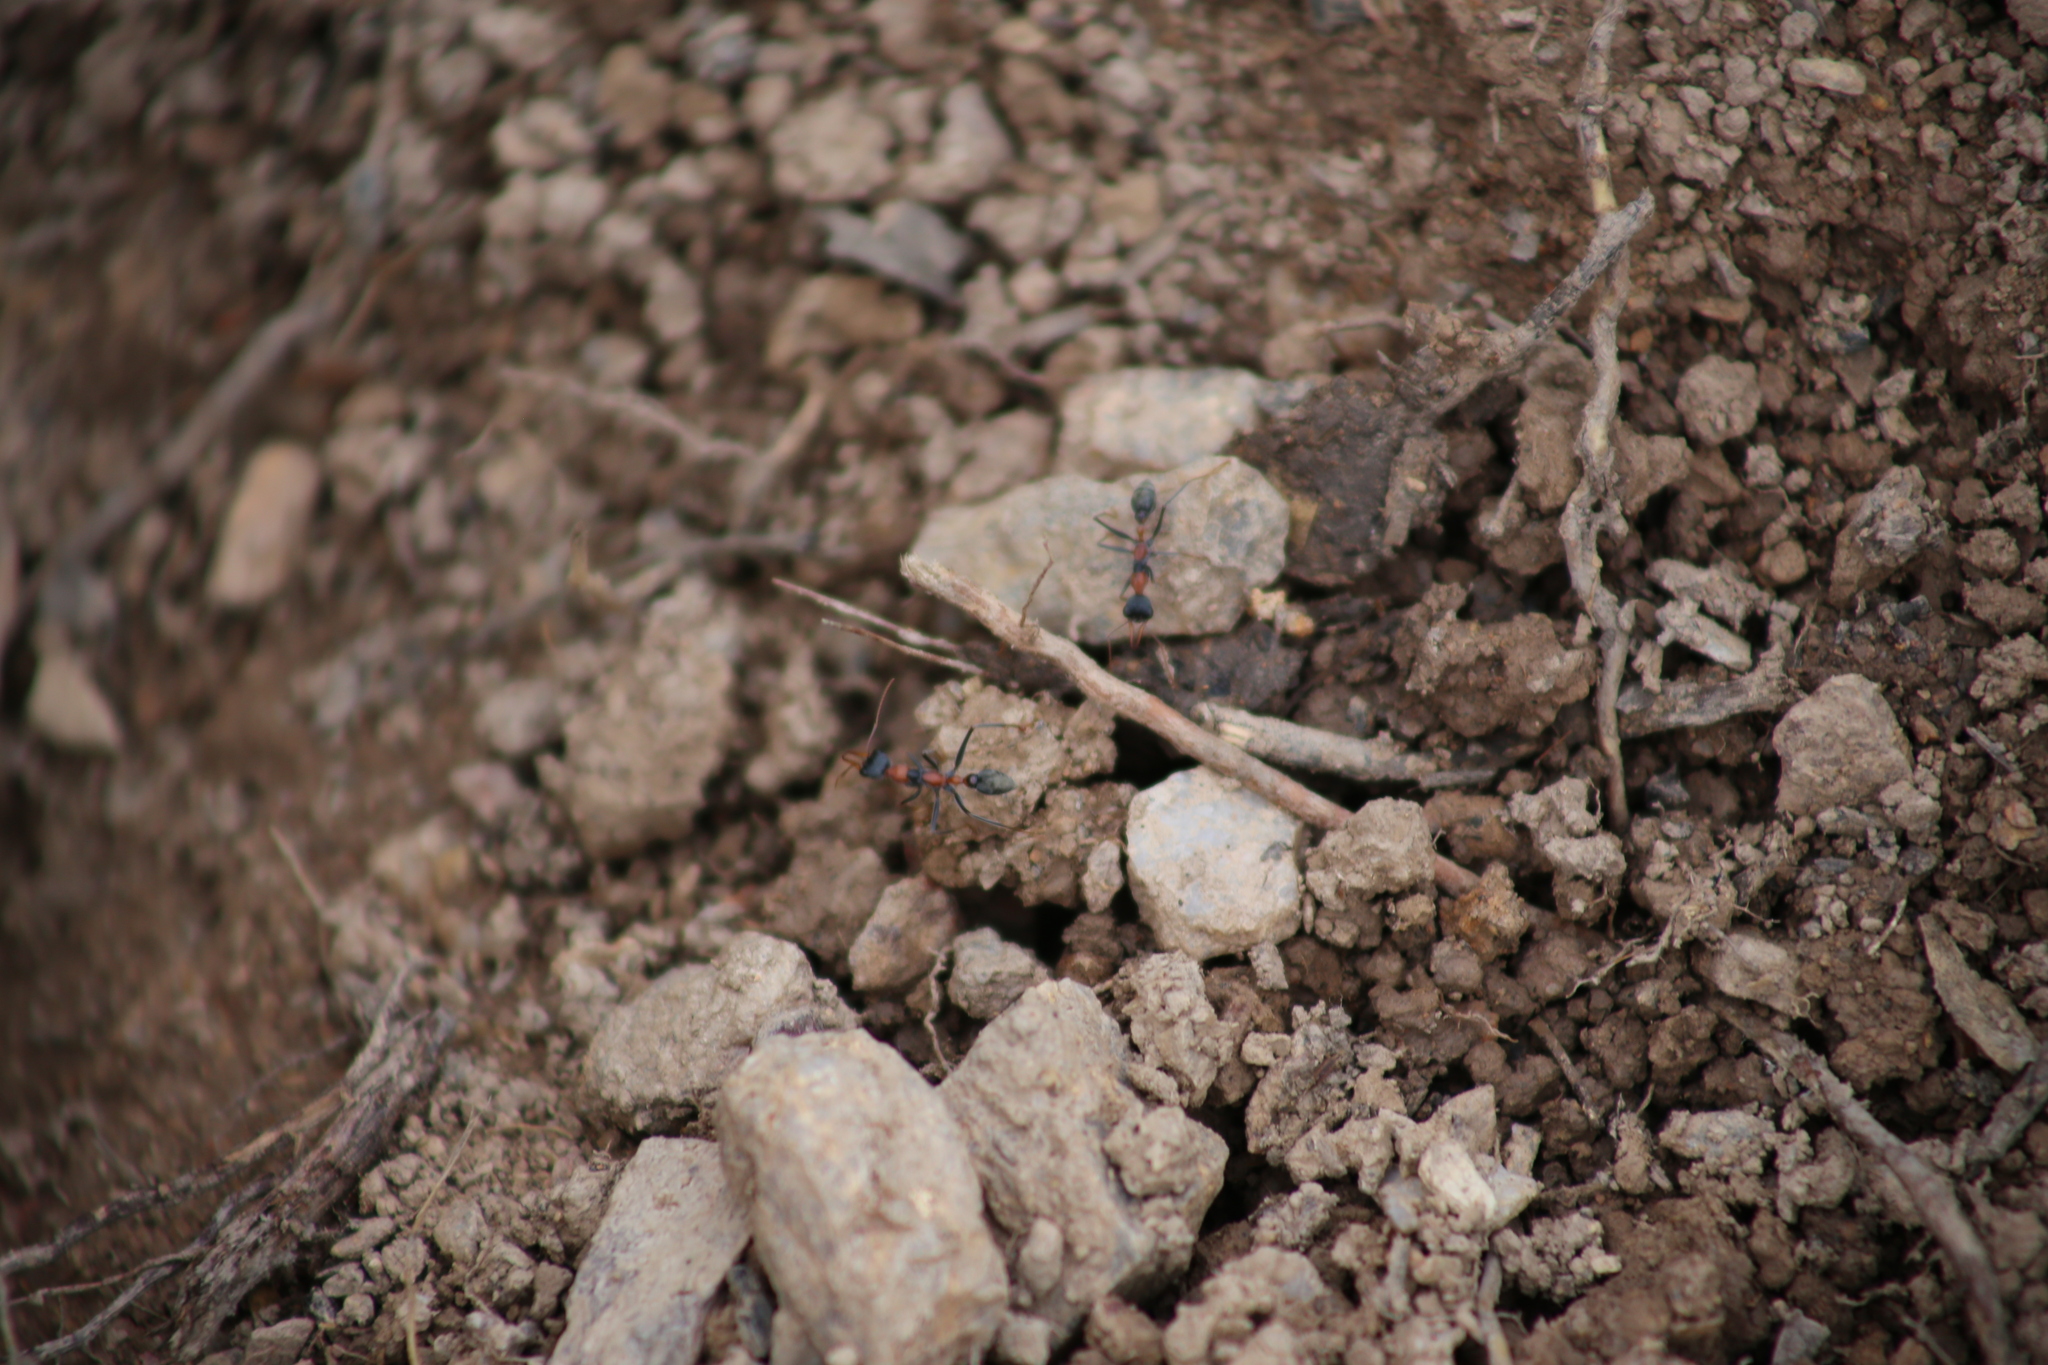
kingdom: Animalia
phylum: Arthropoda
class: Insecta
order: Hymenoptera
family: Formicidae
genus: Myrmecia
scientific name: Myrmecia nigrocincta
